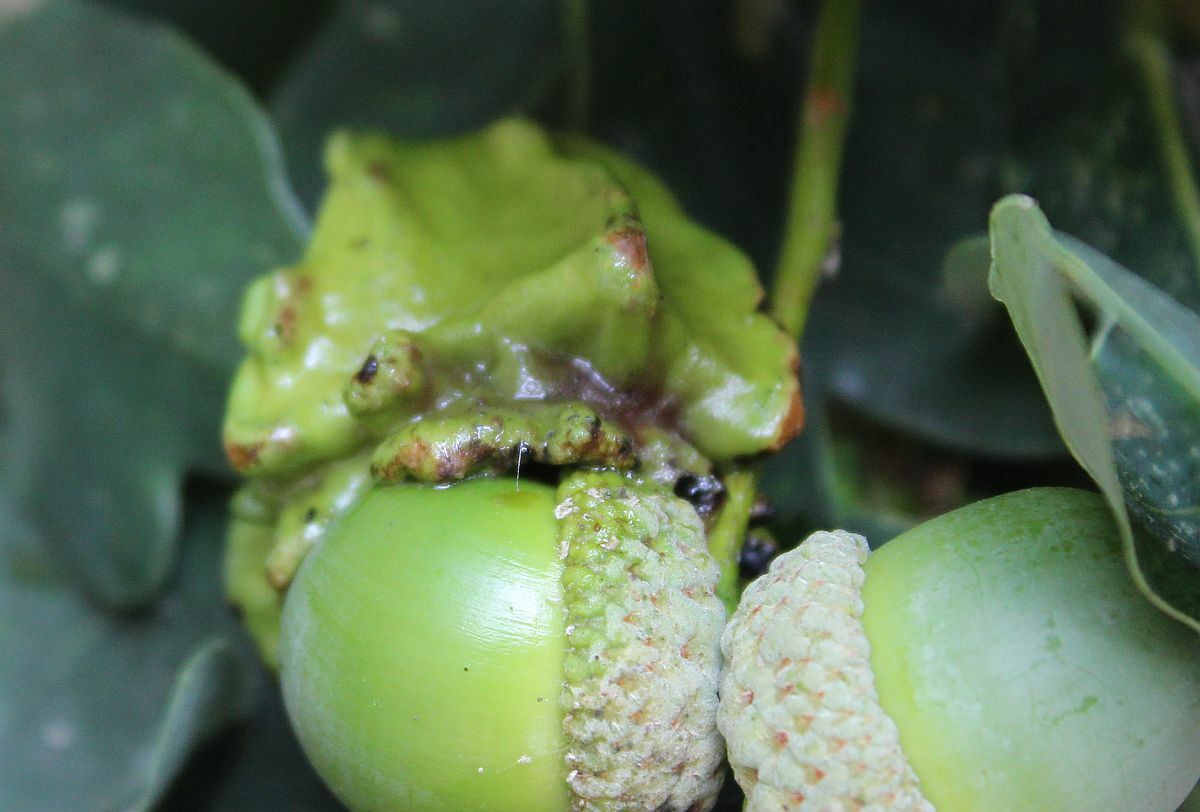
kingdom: Animalia
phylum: Arthropoda
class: Insecta
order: Hymenoptera
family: Cynipidae
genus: Andricus
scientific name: Andricus quercuscalicis
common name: Knopper gall
